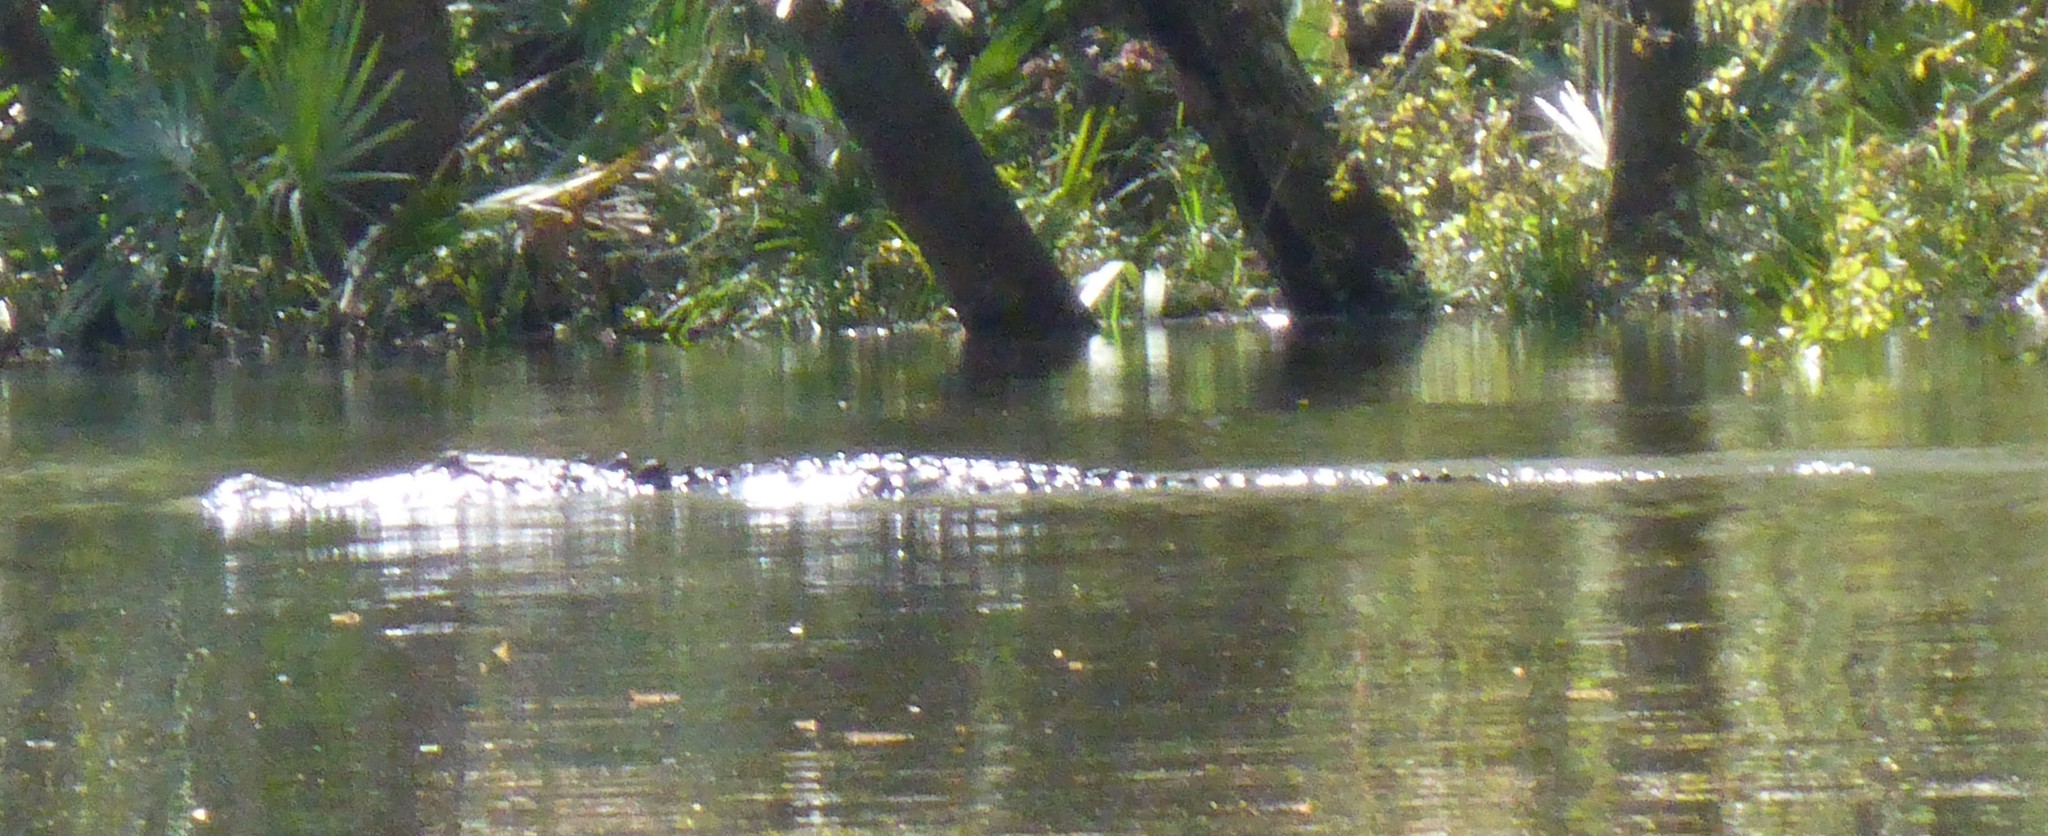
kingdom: Animalia
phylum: Chordata
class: Crocodylia
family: Alligatoridae
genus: Alligator
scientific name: Alligator mississippiensis
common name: American alligator
